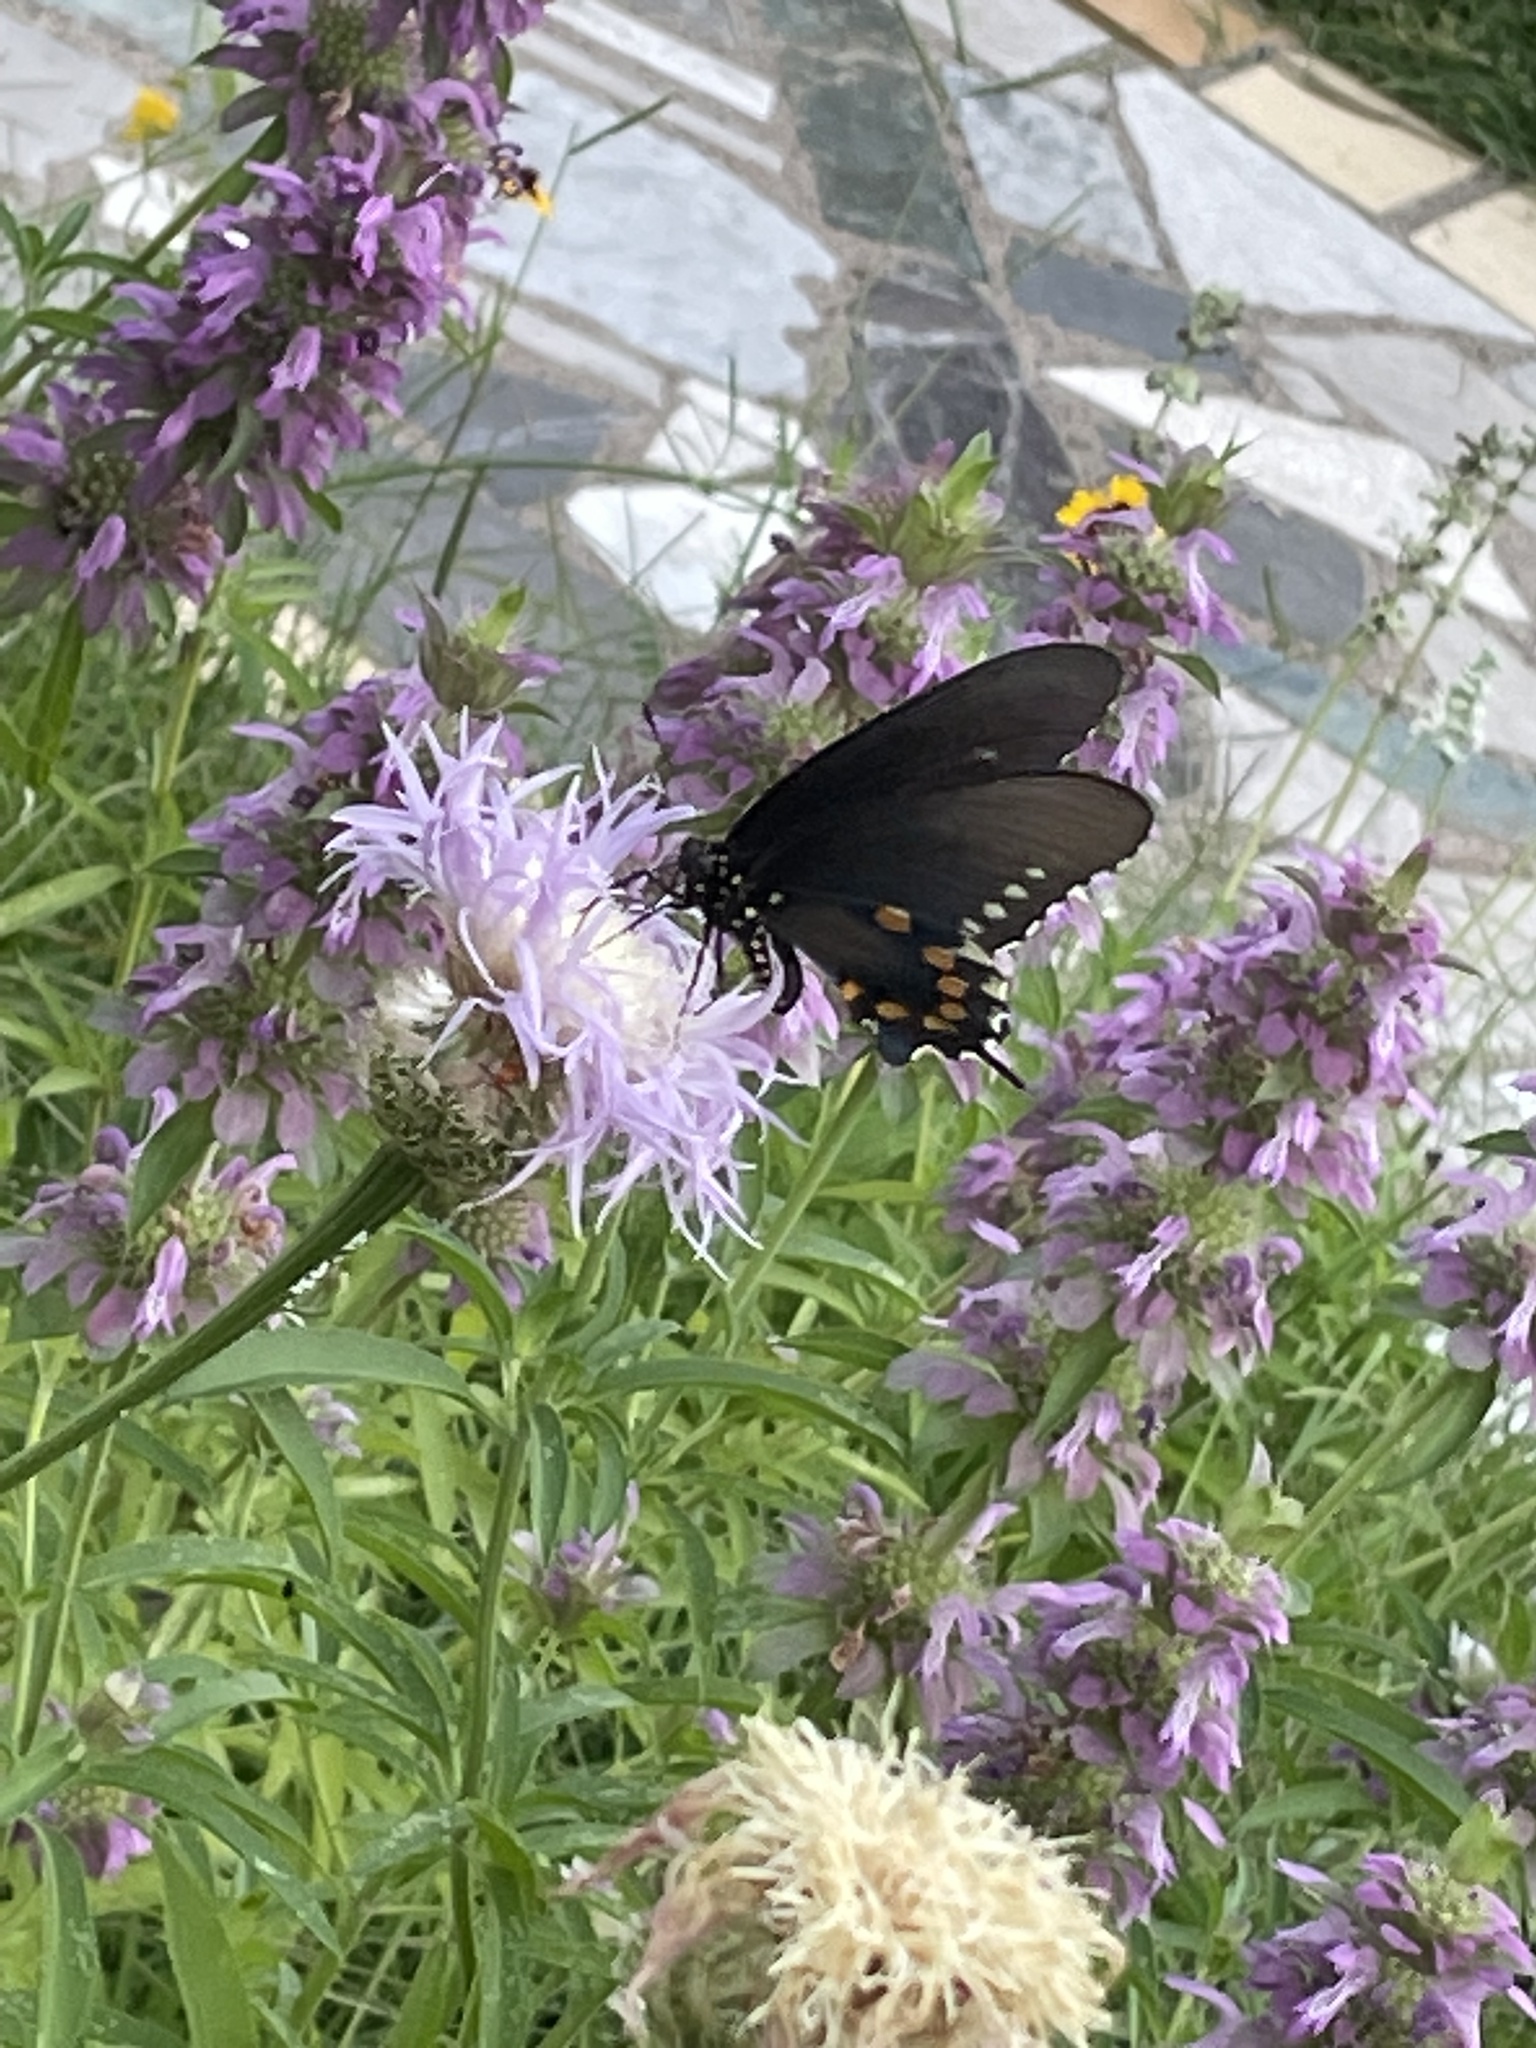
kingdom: Animalia
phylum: Arthropoda
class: Insecta
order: Lepidoptera
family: Papilionidae
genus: Battus
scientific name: Battus philenor
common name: Pipevine swallowtail
